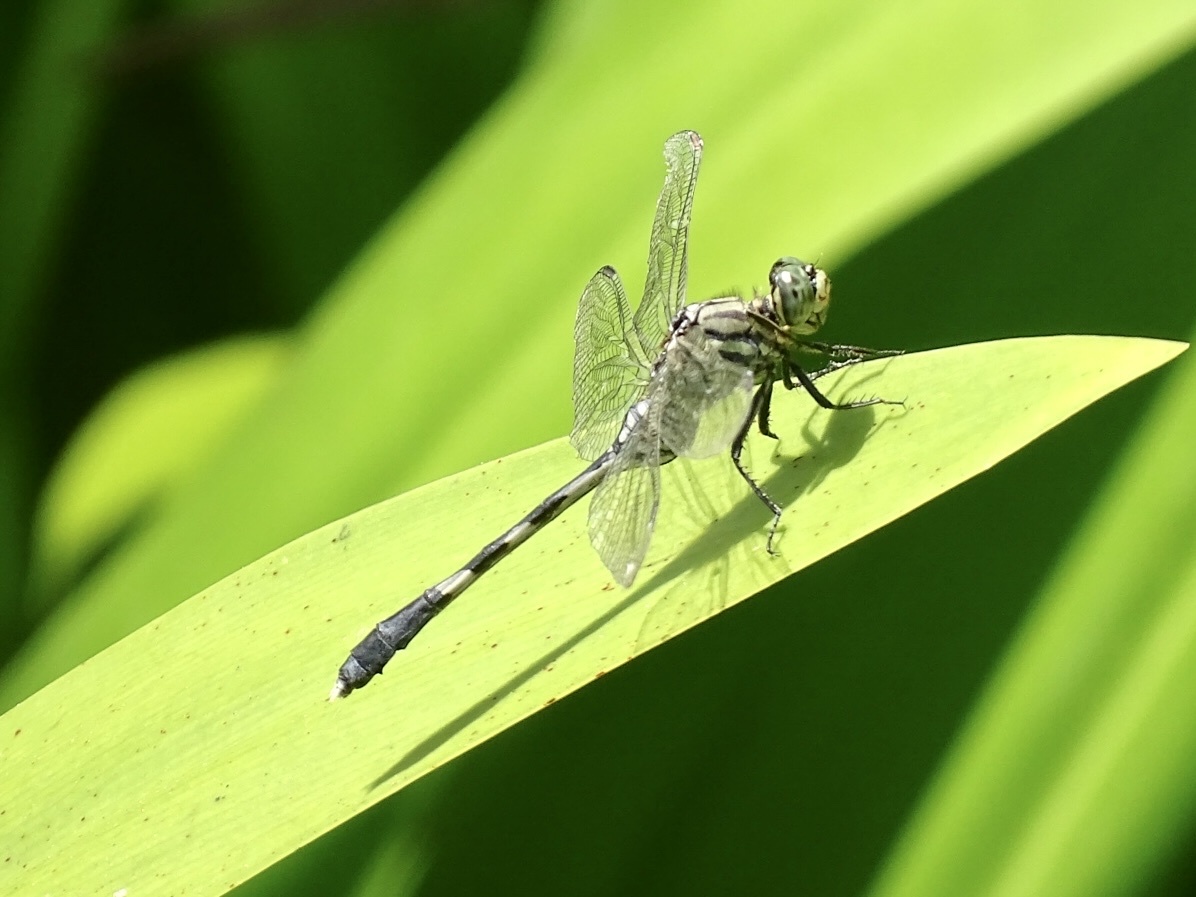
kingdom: Animalia
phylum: Arthropoda
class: Insecta
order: Odonata
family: Libellulidae
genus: Orthetrum
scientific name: Orthetrum sabina
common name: Slender skimmer
